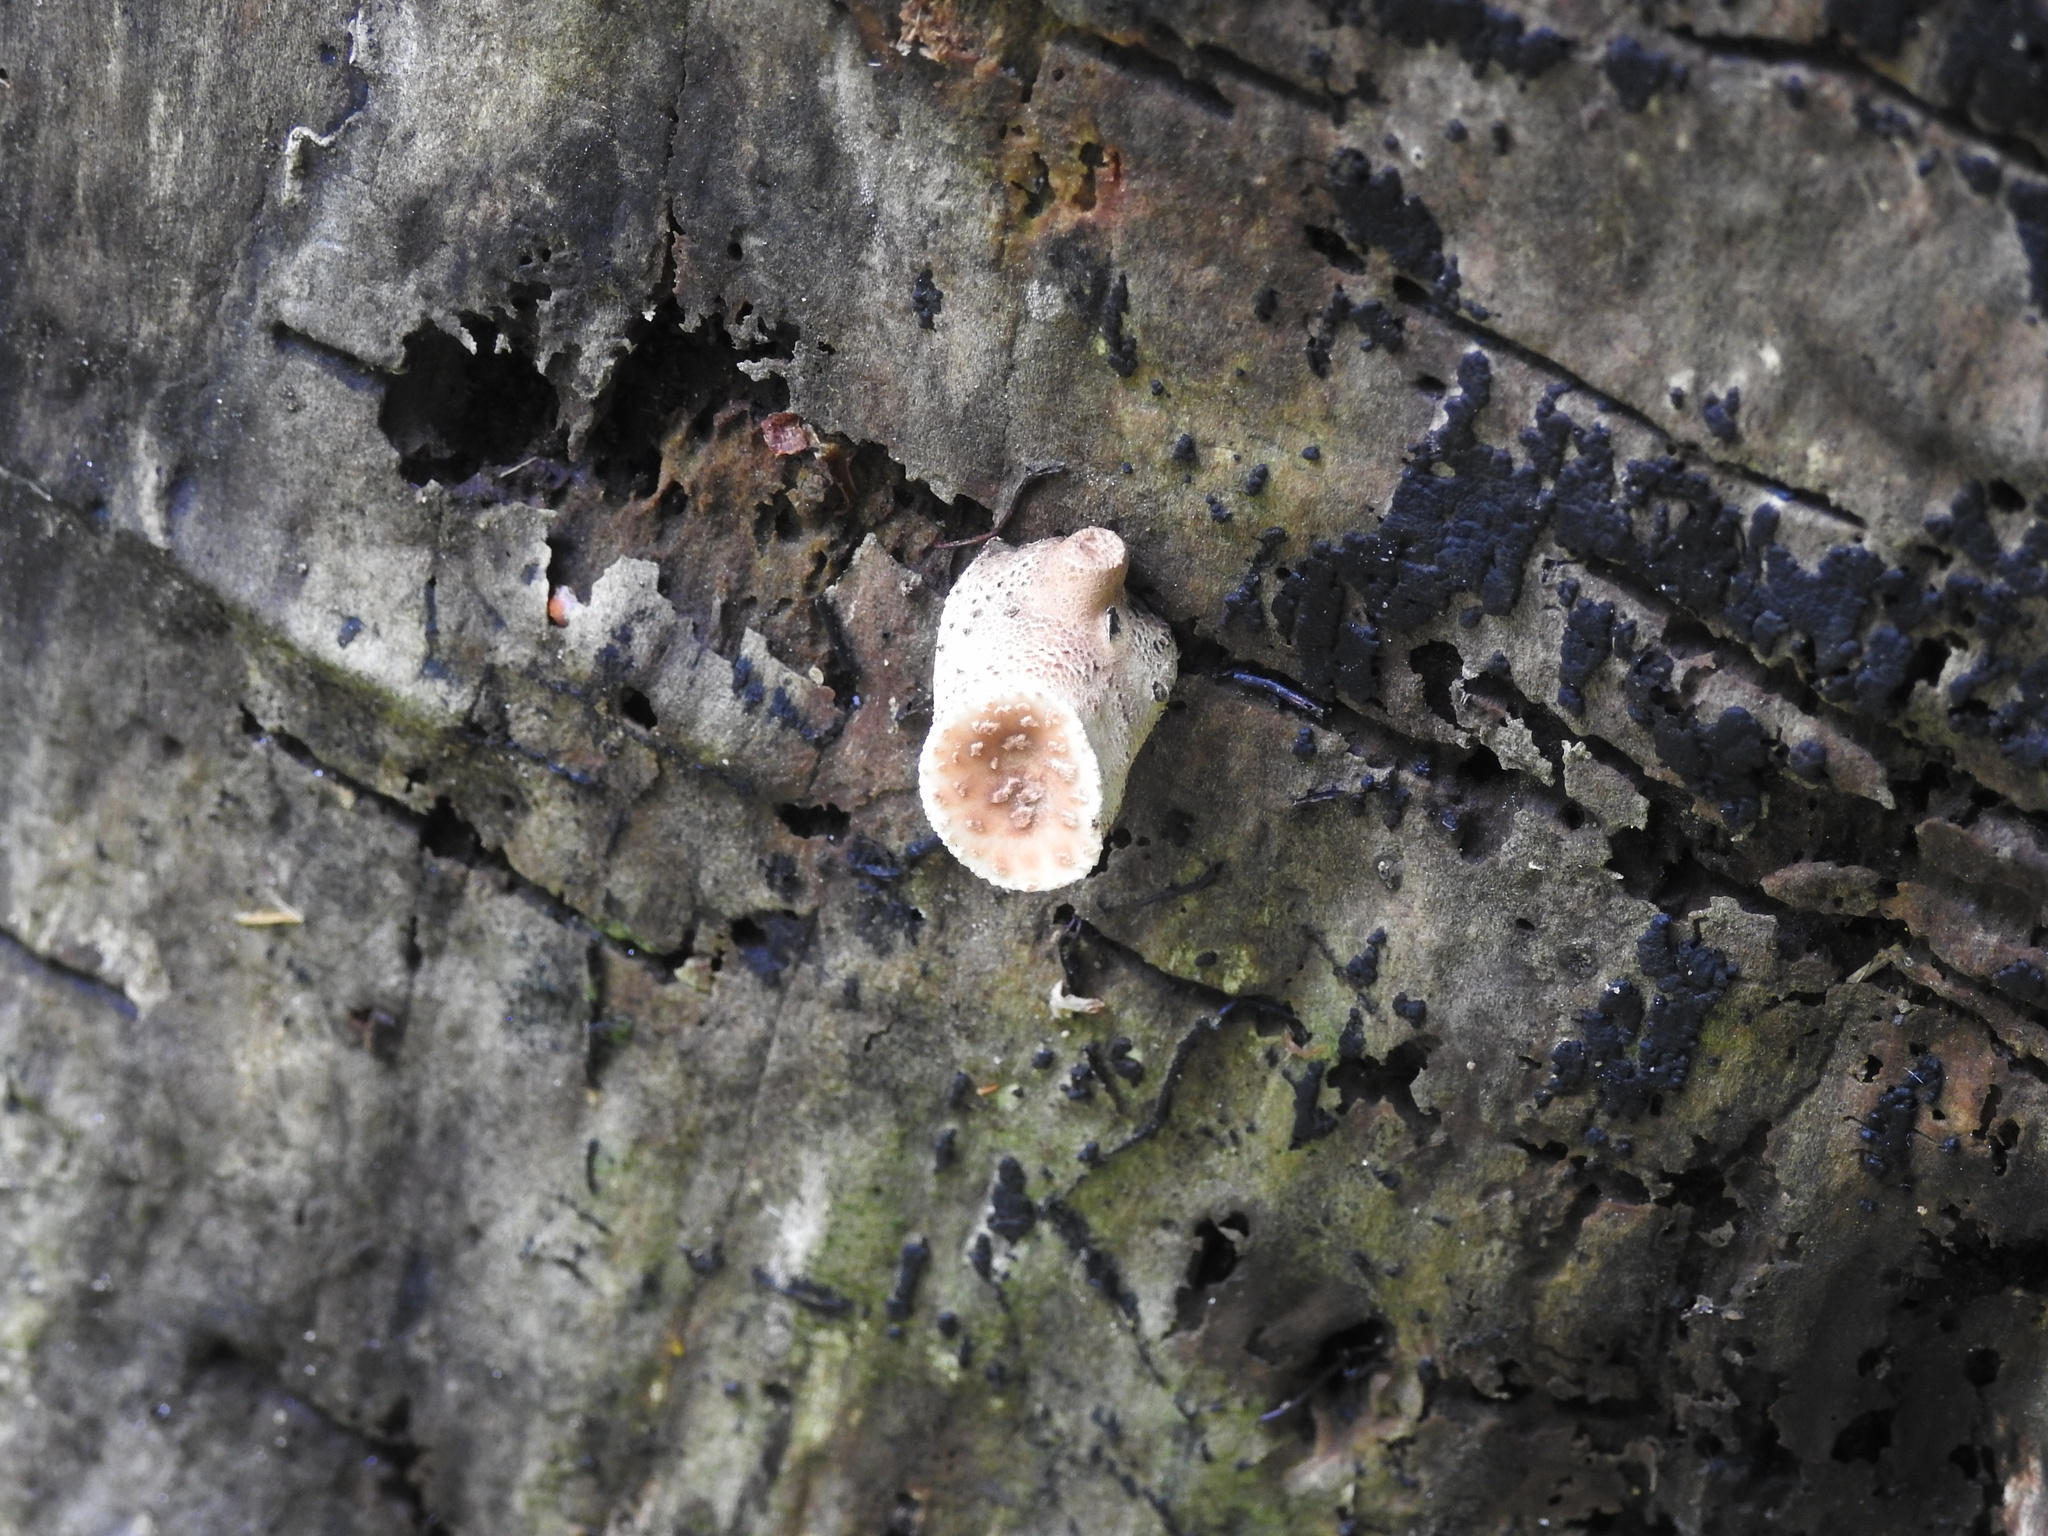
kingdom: Fungi
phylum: Basidiomycota
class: Agaricomycetes
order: Polyporales
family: Polyporaceae
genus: Cerioporus
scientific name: Cerioporus squamosus
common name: Dryad's saddle
